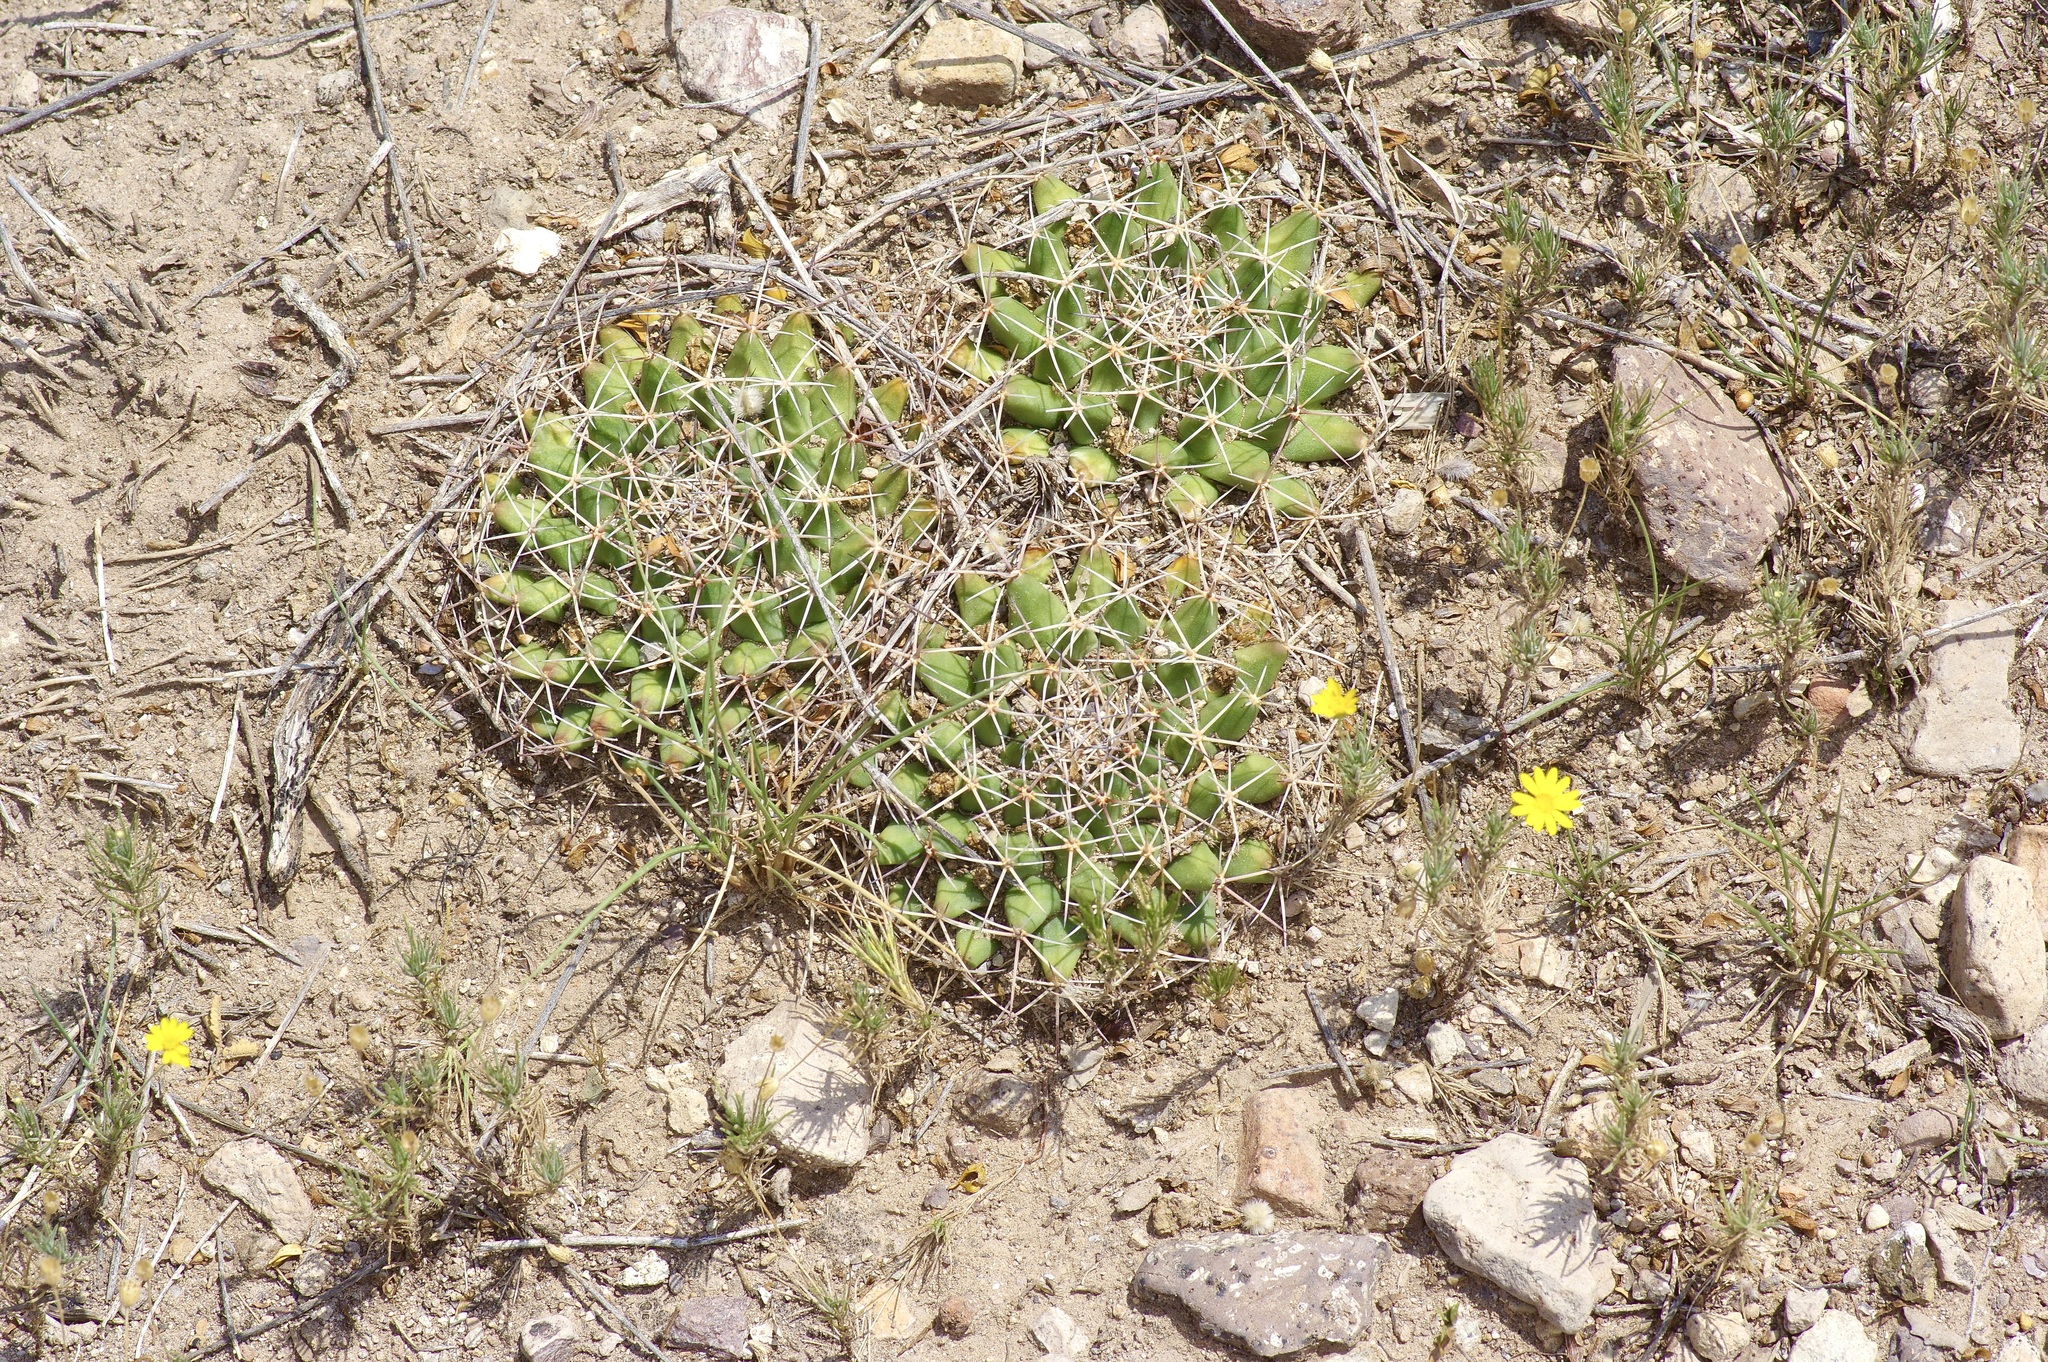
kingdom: Plantae
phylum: Tracheophyta
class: Magnoliopsida
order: Caryophyllales
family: Cactaceae
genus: Mammillaria
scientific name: Mammillaria heyderi
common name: Little nipple cactus
